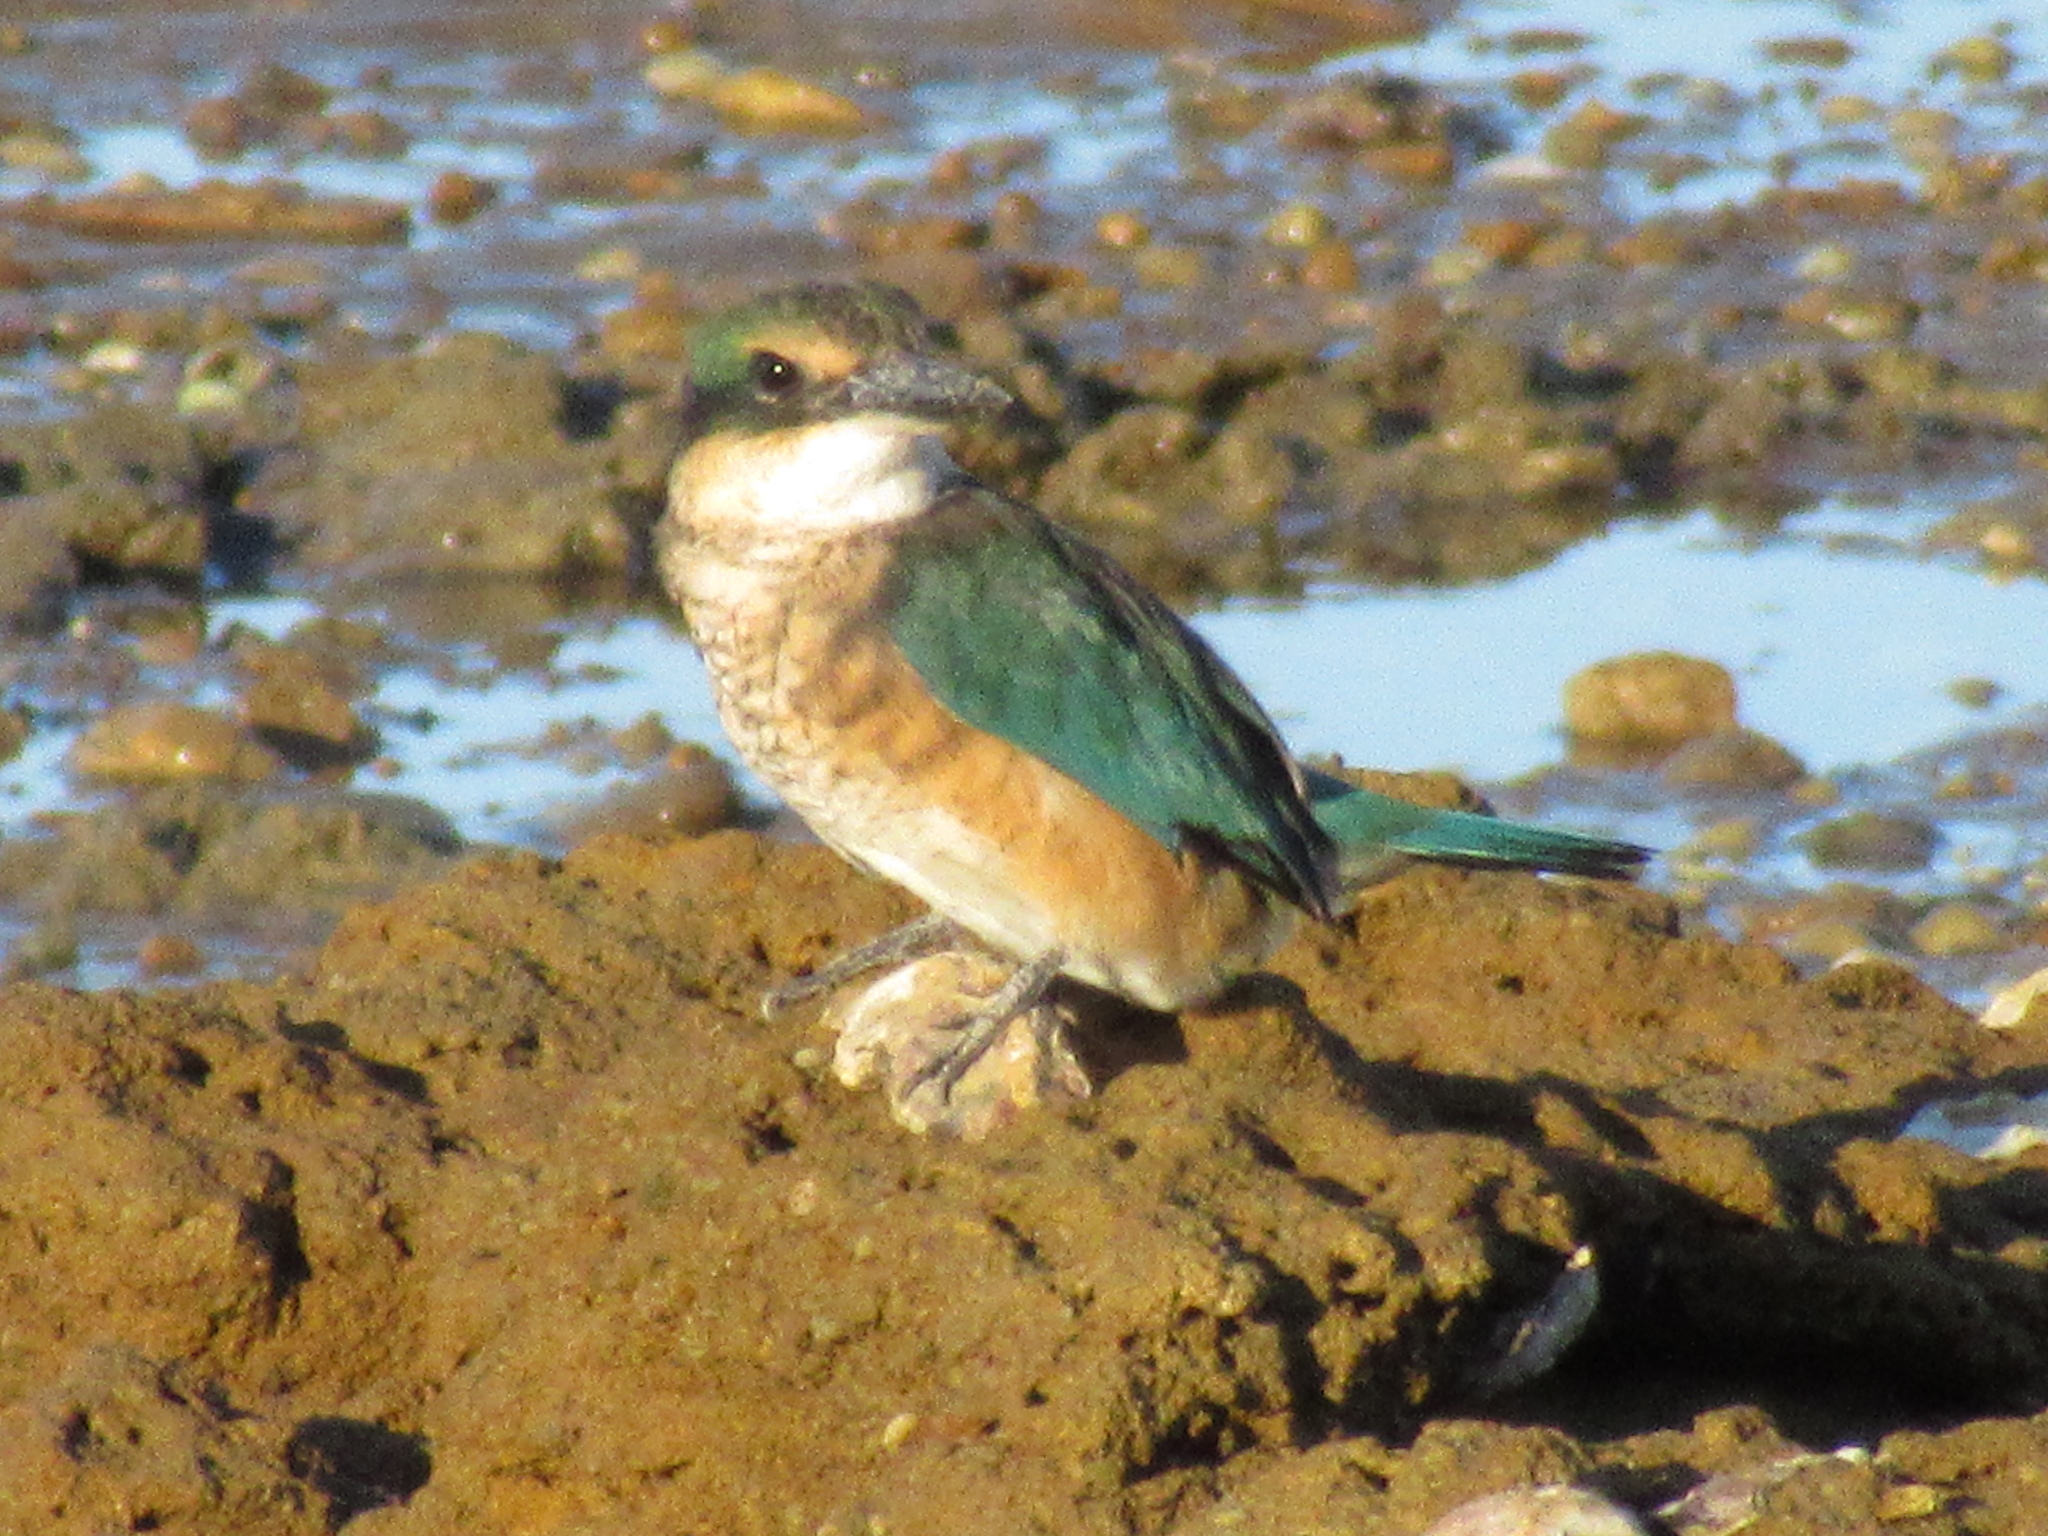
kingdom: Animalia
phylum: Chordata
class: Aves
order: Coraciiformes
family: Alcedinidae
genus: Todiramphus
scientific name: Todiramphus sanctus
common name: Sacred kingfisher
